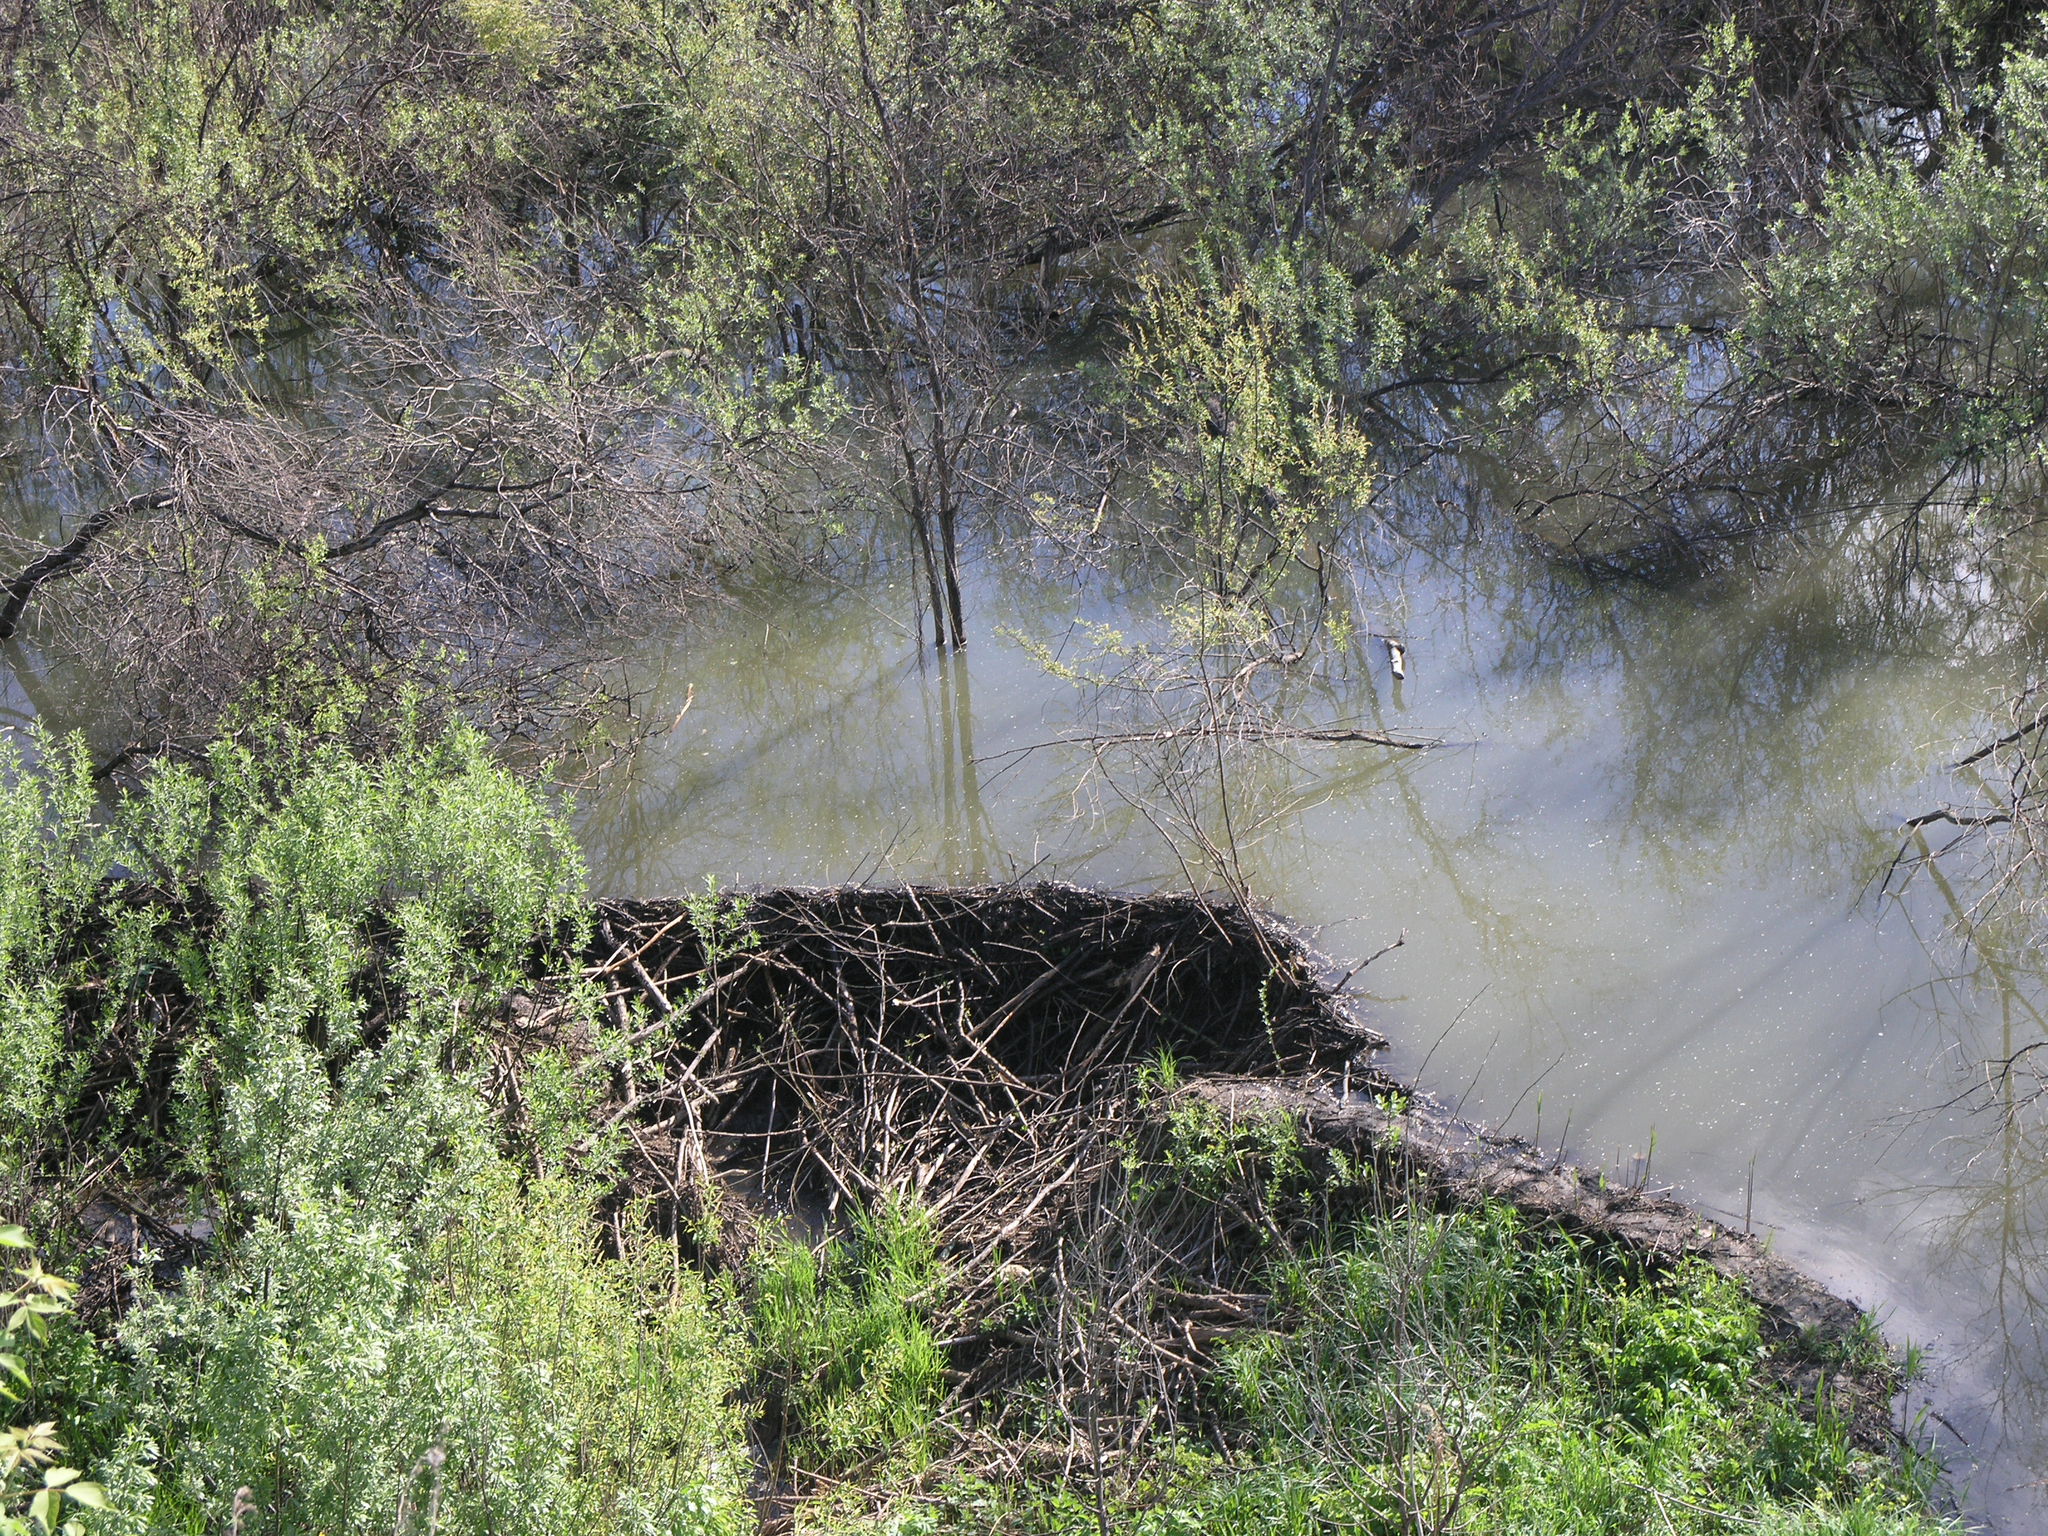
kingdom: Animalia
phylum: Chordata
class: Mammalia
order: Rodentia
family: Castoridae
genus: Castor
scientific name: Castor fiber
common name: Eurasian beaver
